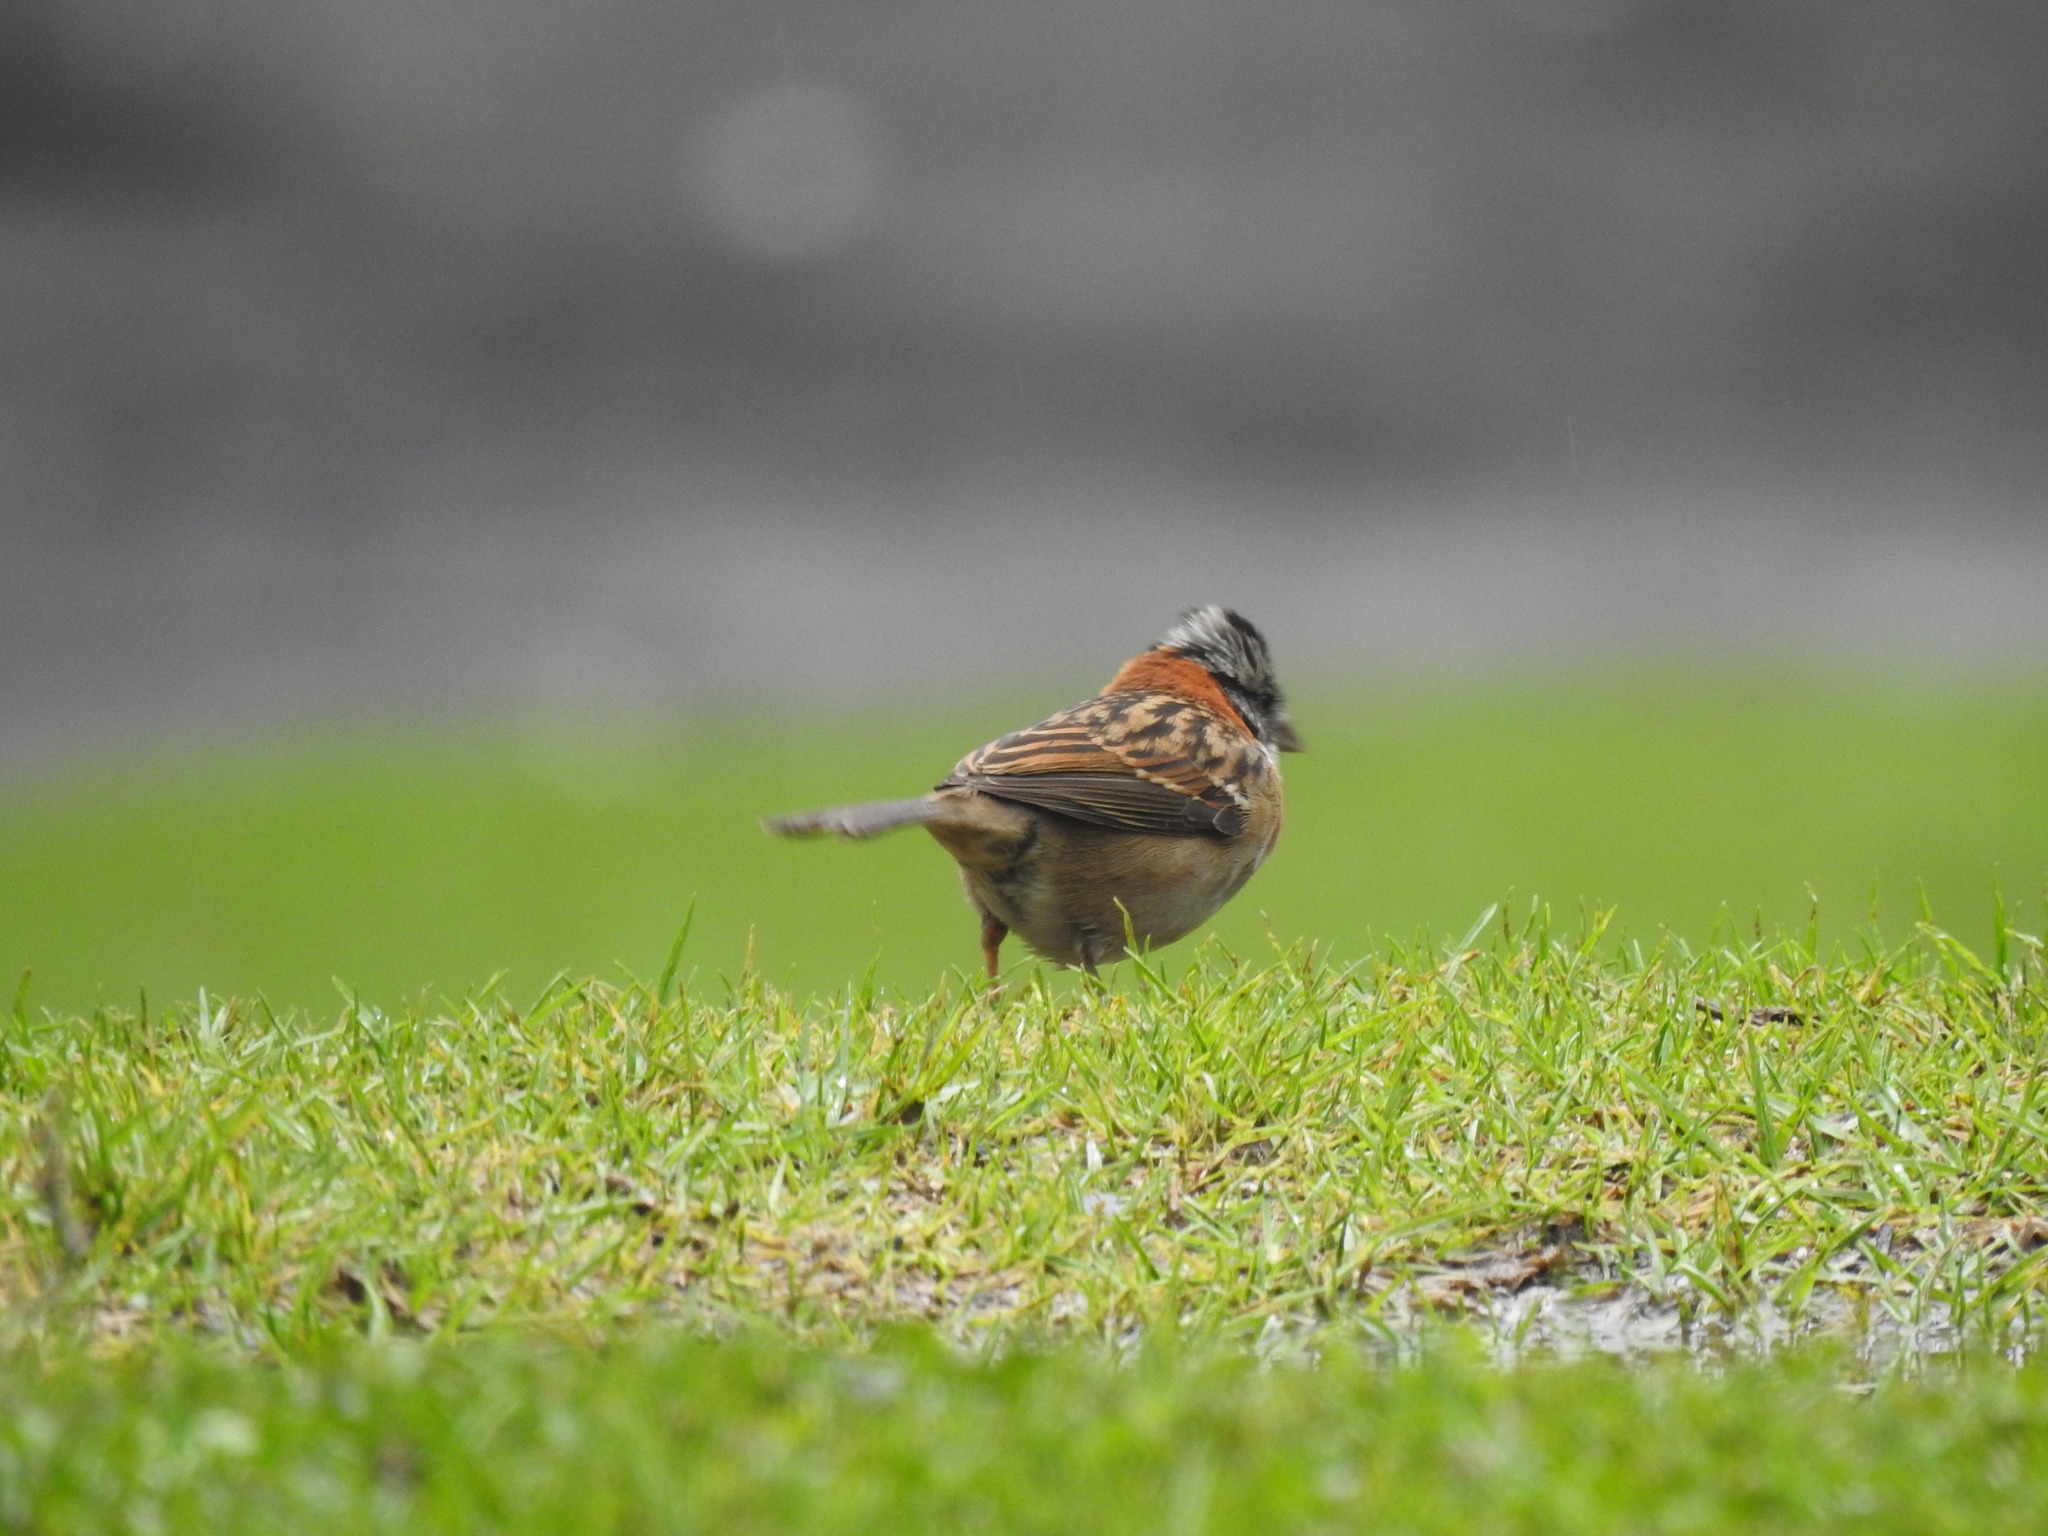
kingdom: Animalia
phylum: Chordata
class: Aves
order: Passeriformes
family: Passerellidae
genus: Zonotrichia
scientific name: Zonotrichia capensis
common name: Rufous-collared sparrow
